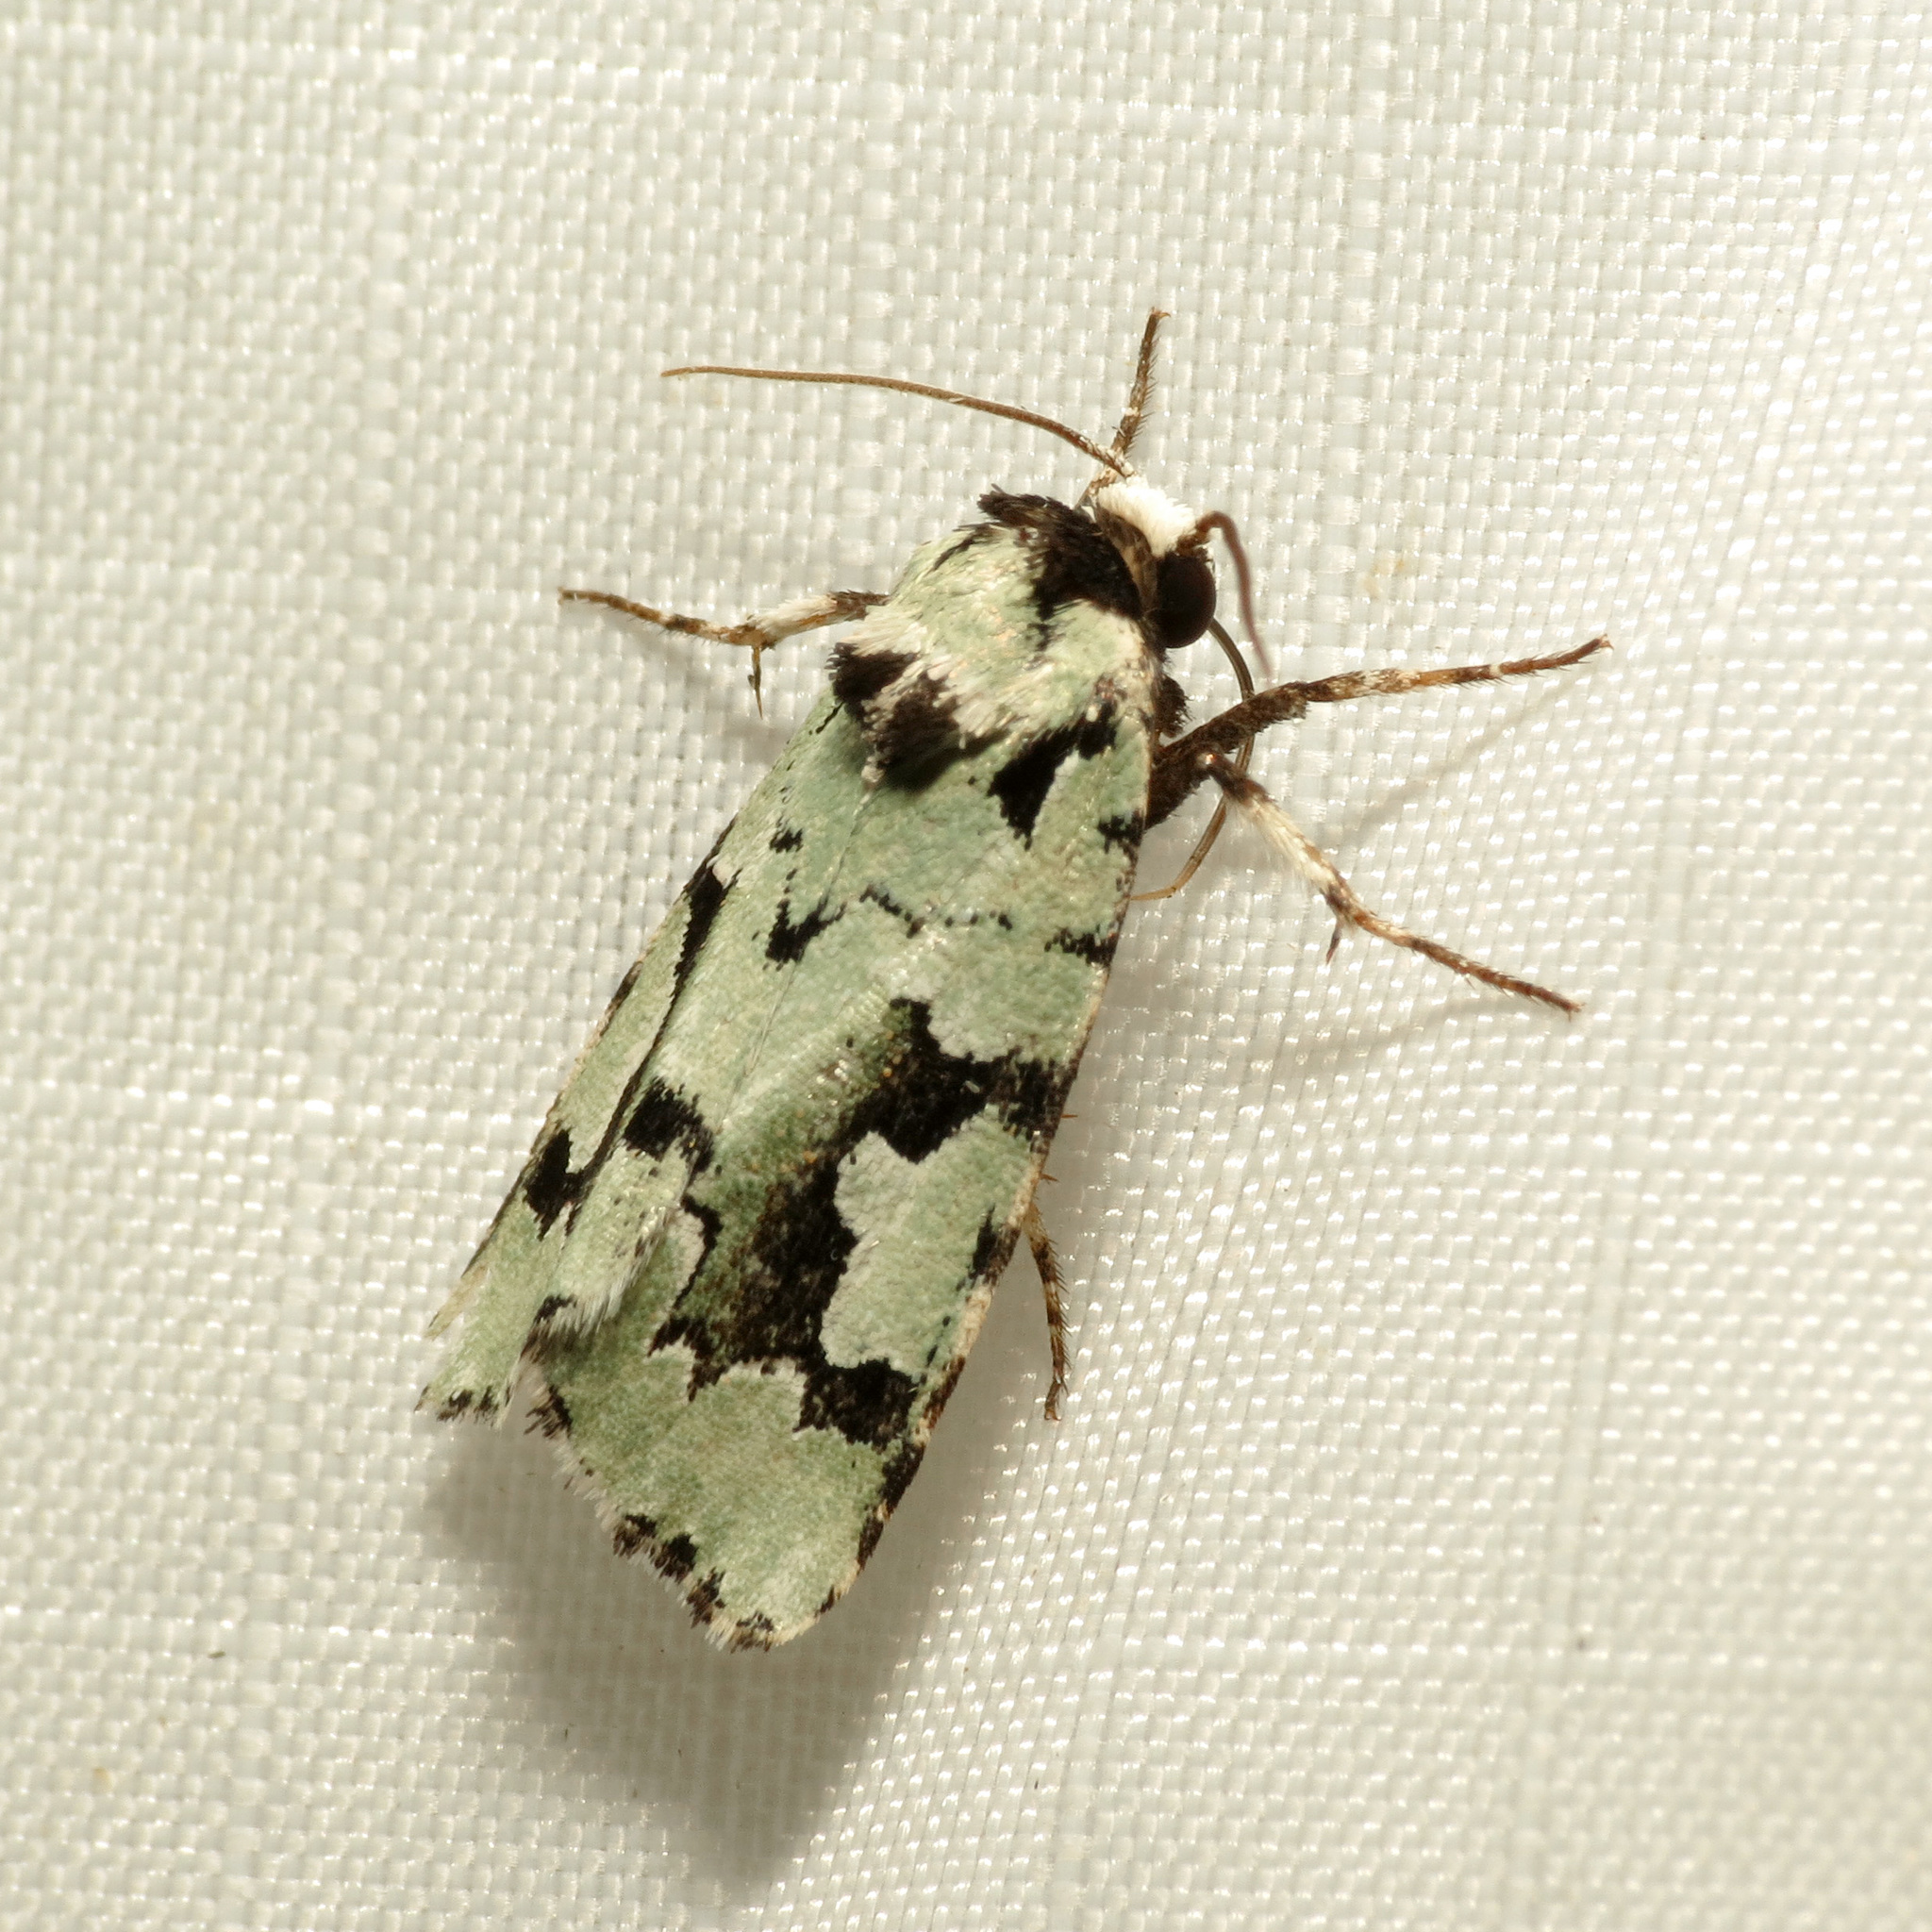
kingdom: Animalia
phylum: Arthropoda
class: Insecta
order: Lepidoptera
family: Noctuidae
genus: Emarginea
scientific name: Emarginea dulcinea
